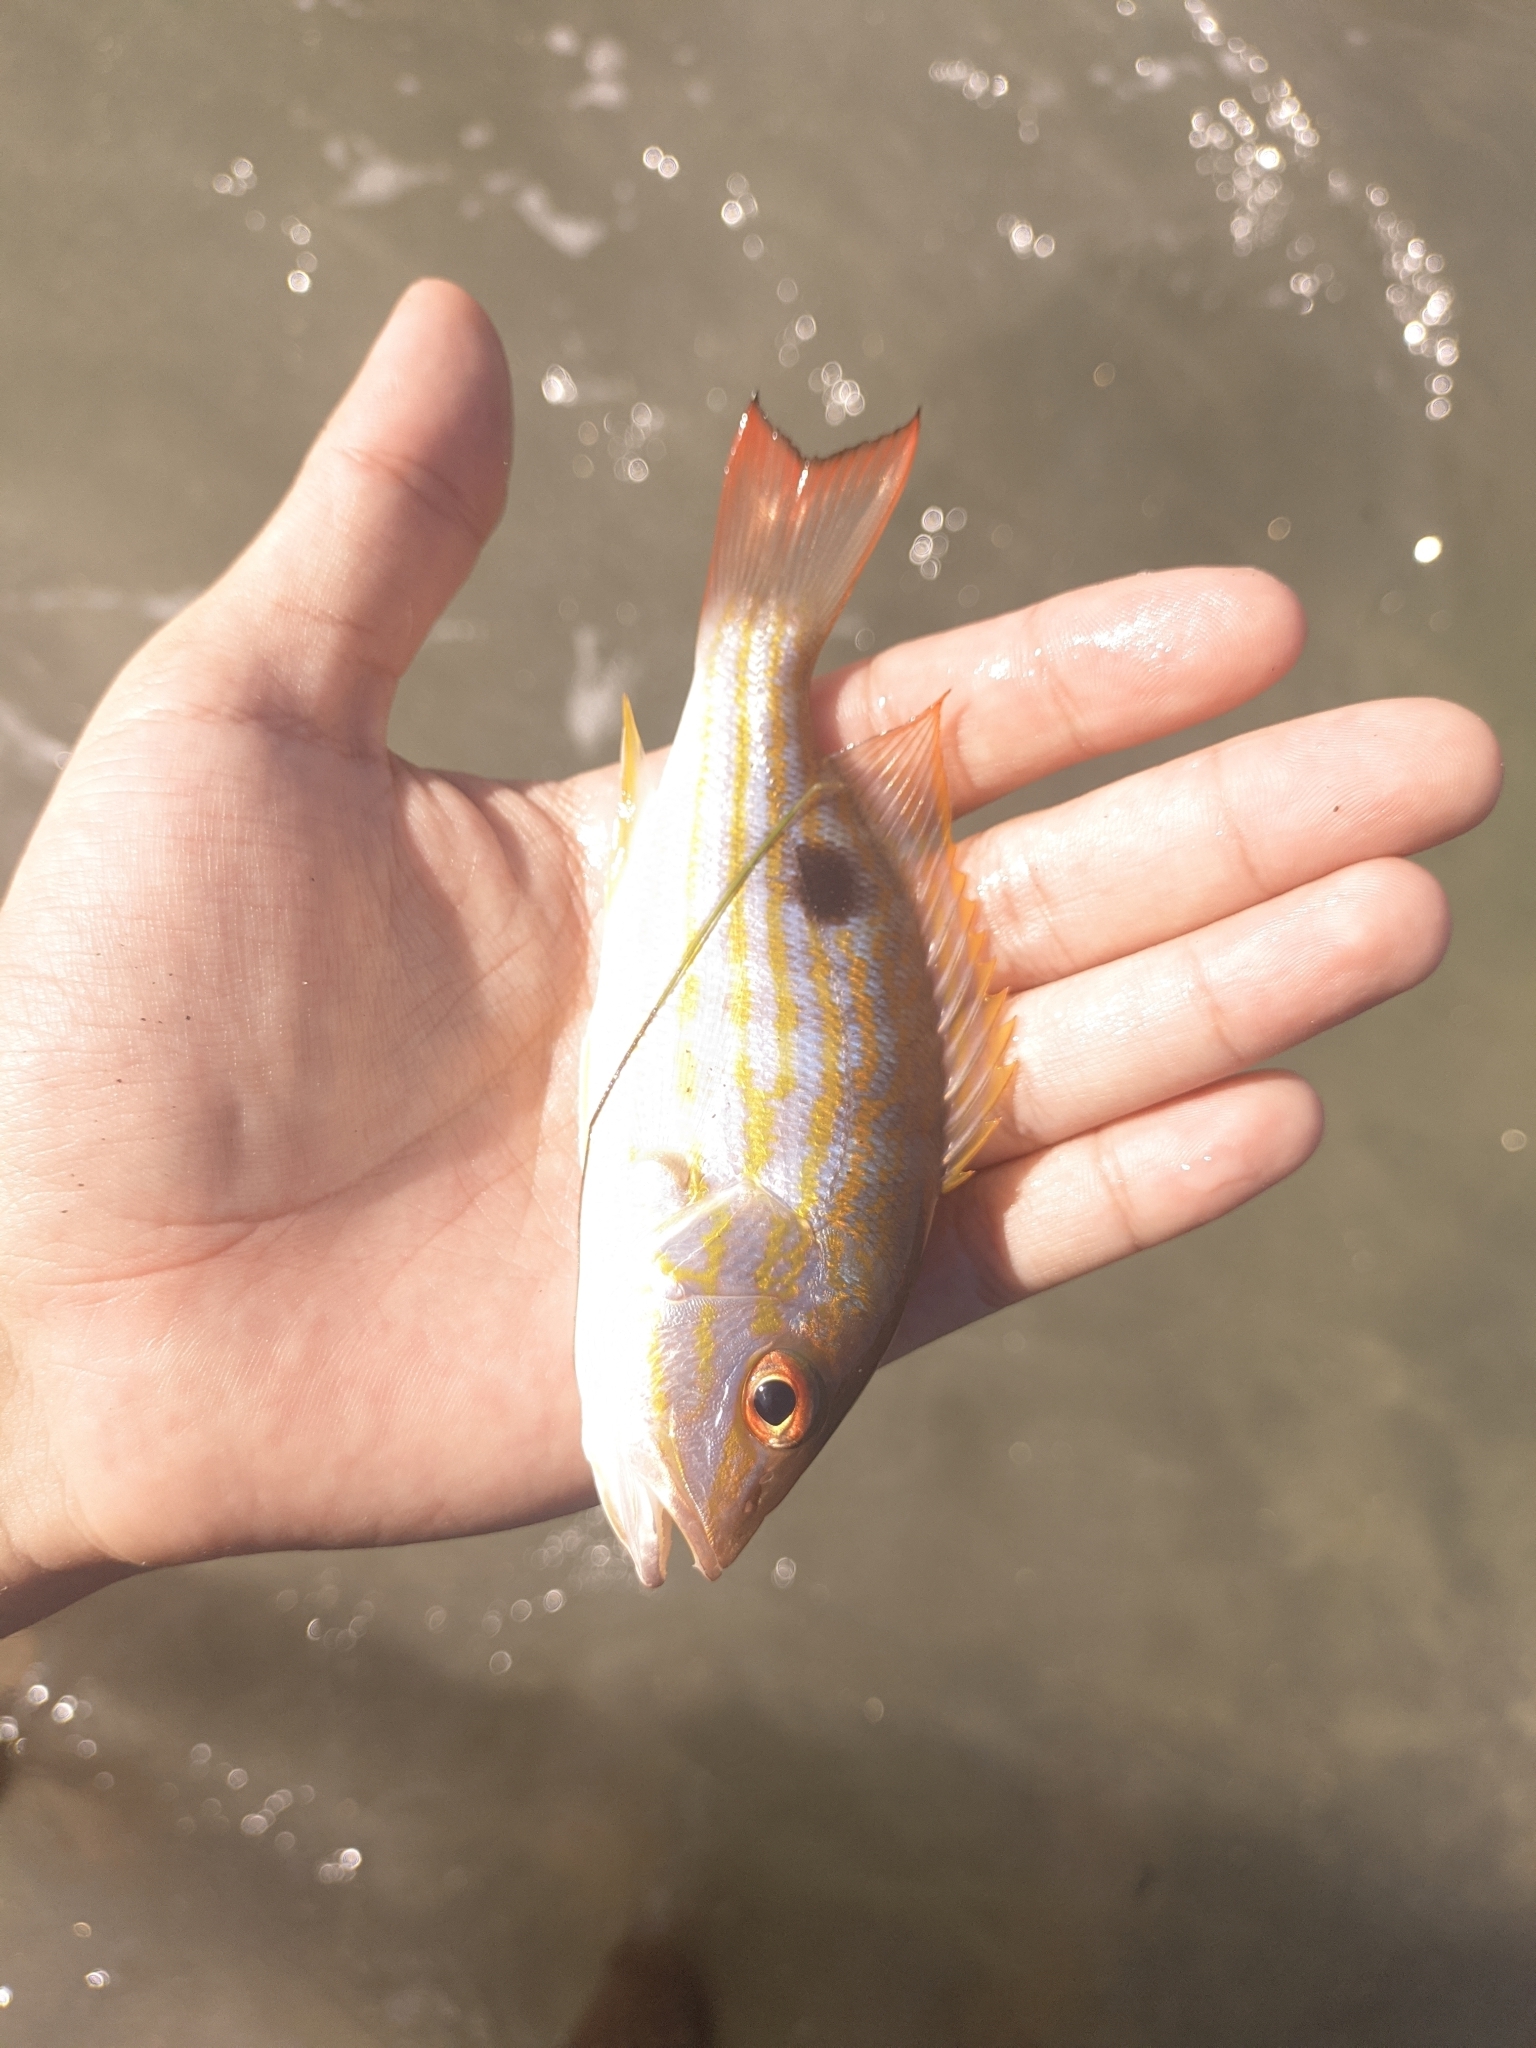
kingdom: Animalia
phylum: Chordata
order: Perciformes
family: Lutjanidae
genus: Lutjanus
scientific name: Lutjanus synagris
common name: Lane snapper
